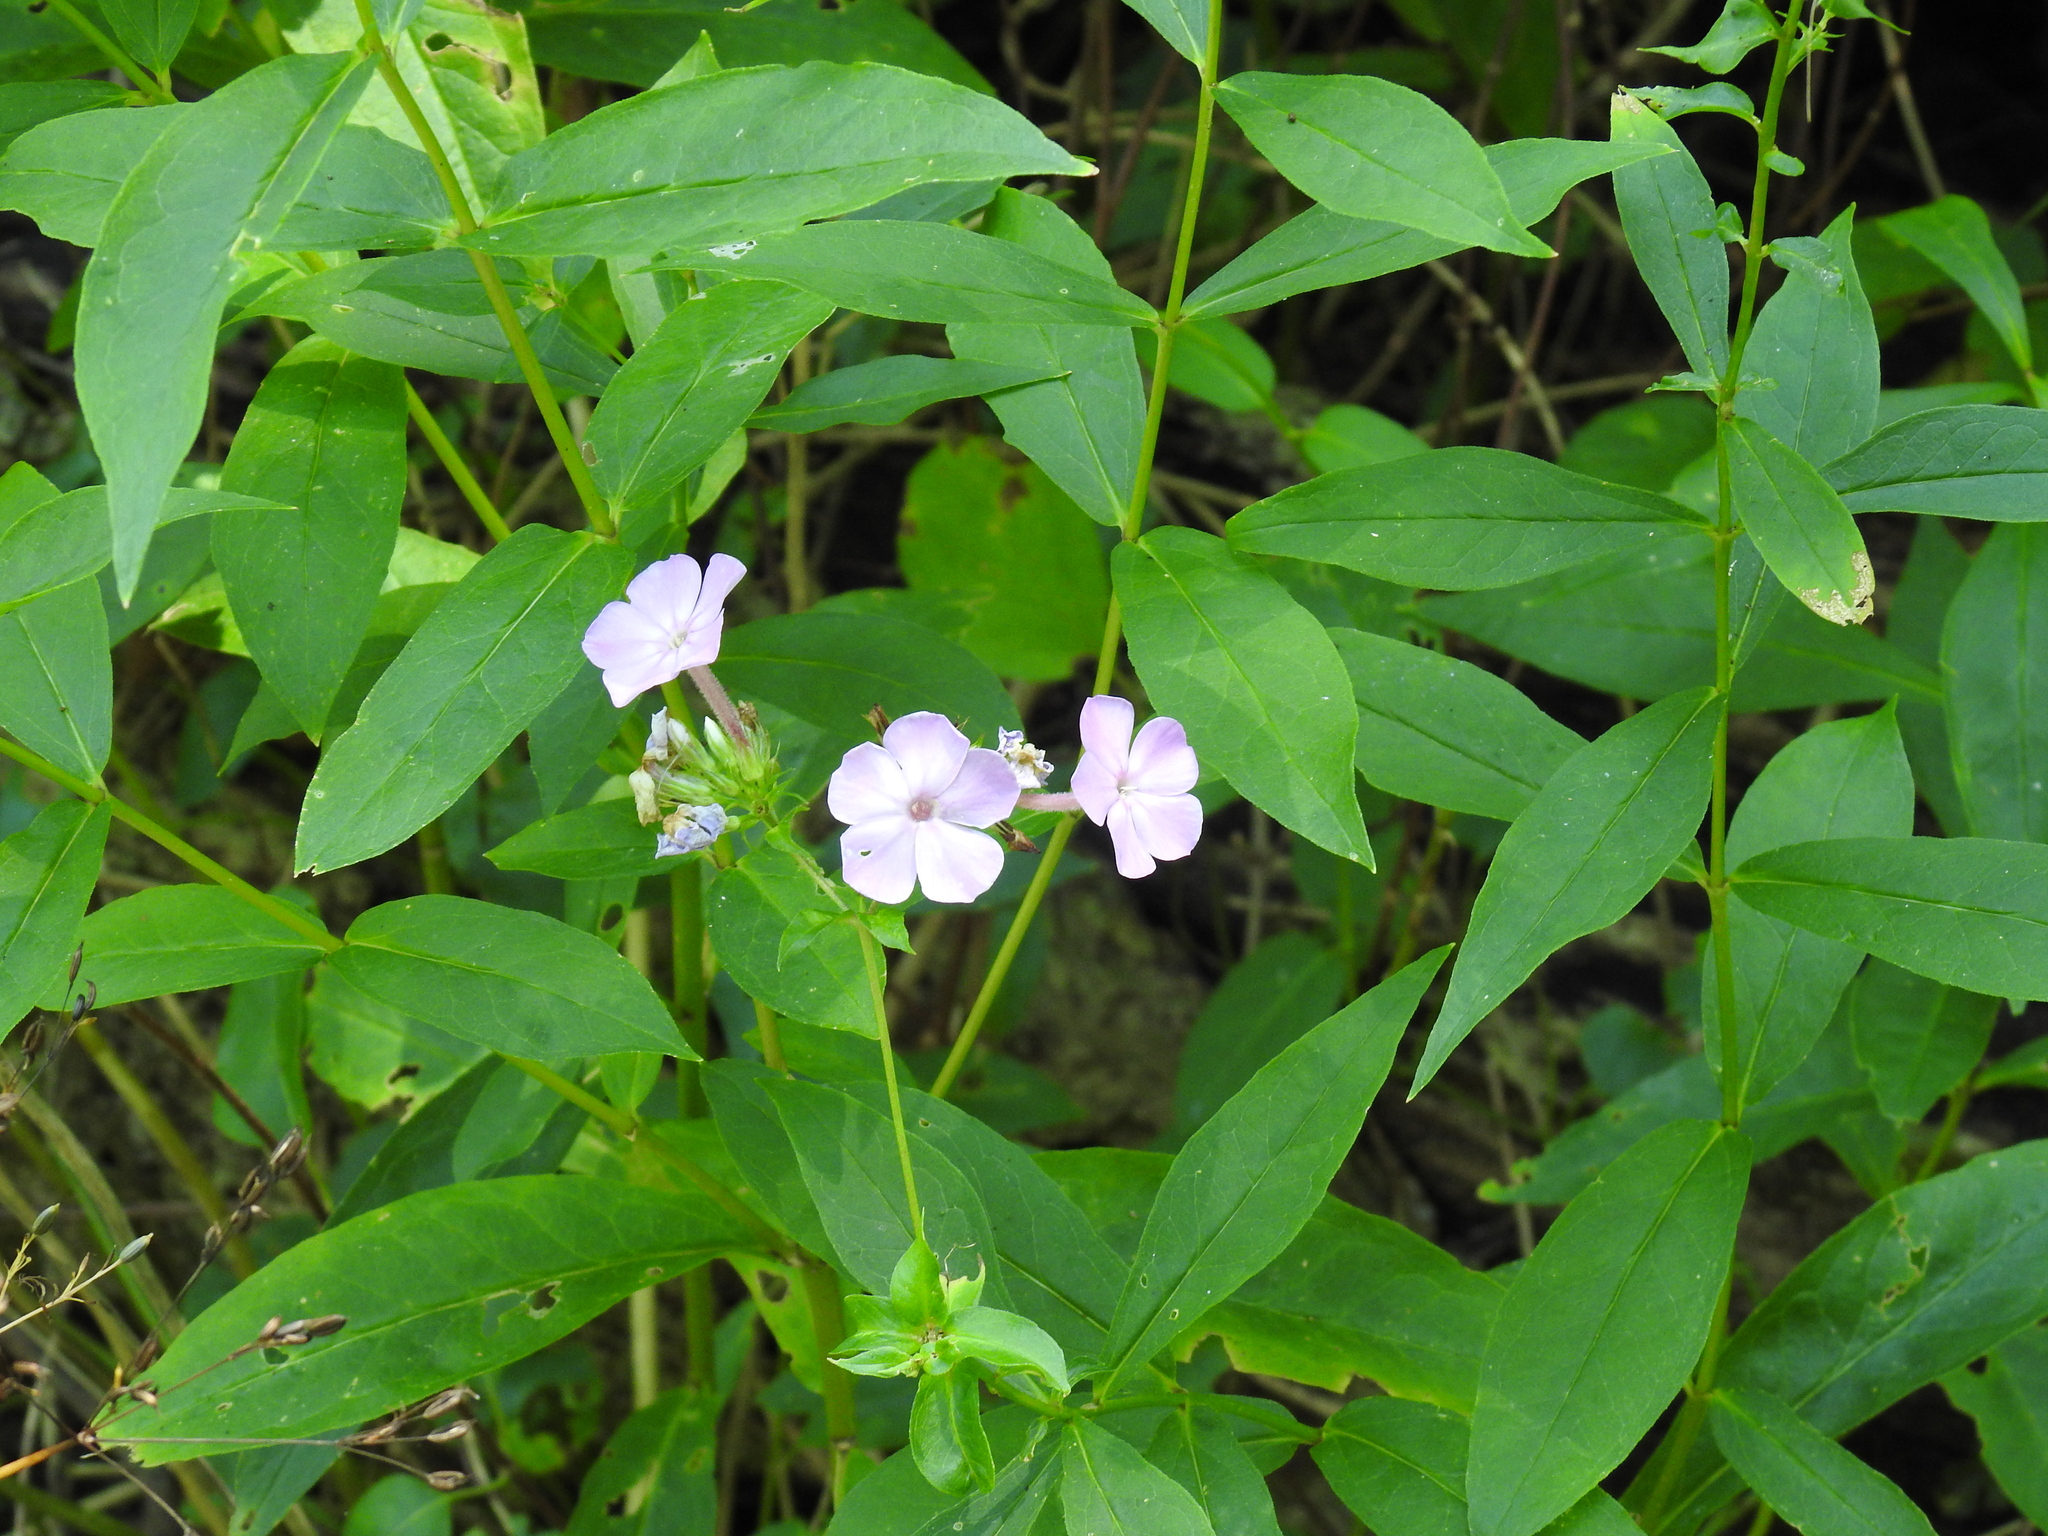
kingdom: Plantae
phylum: Tracheophyta
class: Magnoliopsida
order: Ericales
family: Polemoniaceae
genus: Phlox
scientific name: Phlox paniculata
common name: Fall phlox
